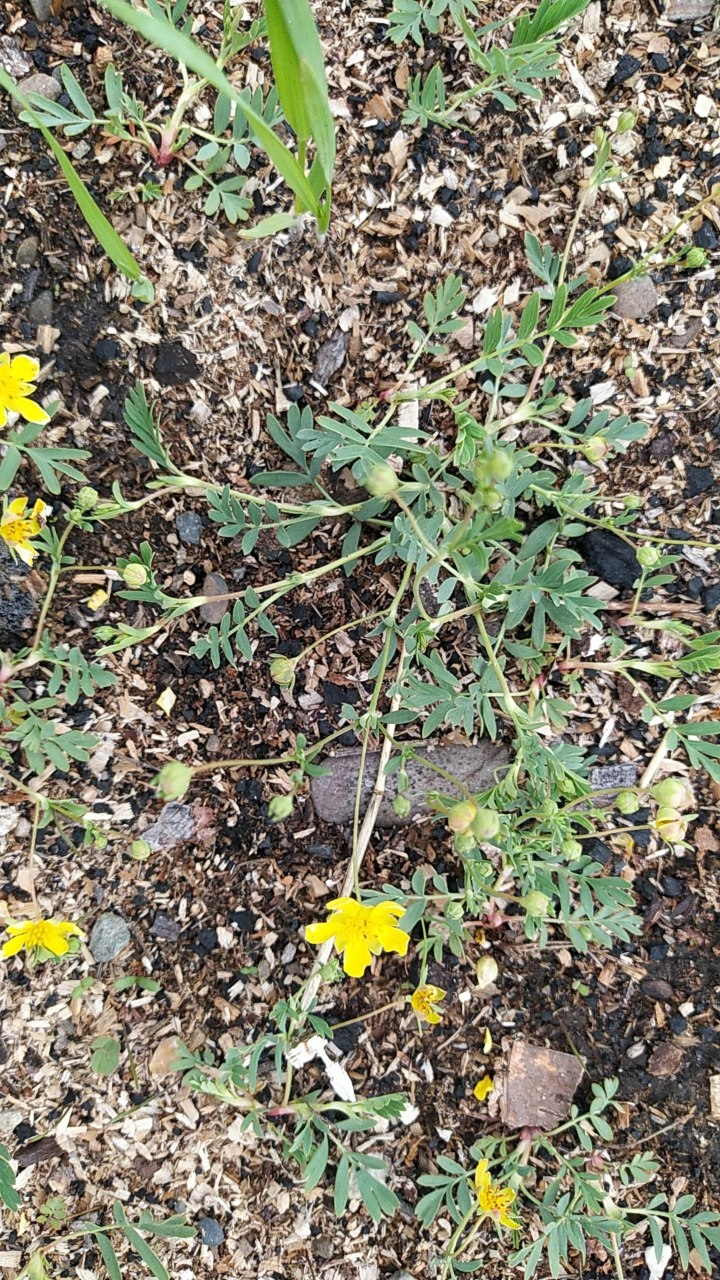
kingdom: Plantae
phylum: Tracheophyta
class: Magnoliopsida
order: Rosales
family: Rosaceae
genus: Sibbaldianthe
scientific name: Sibbaldianthe orientalis
